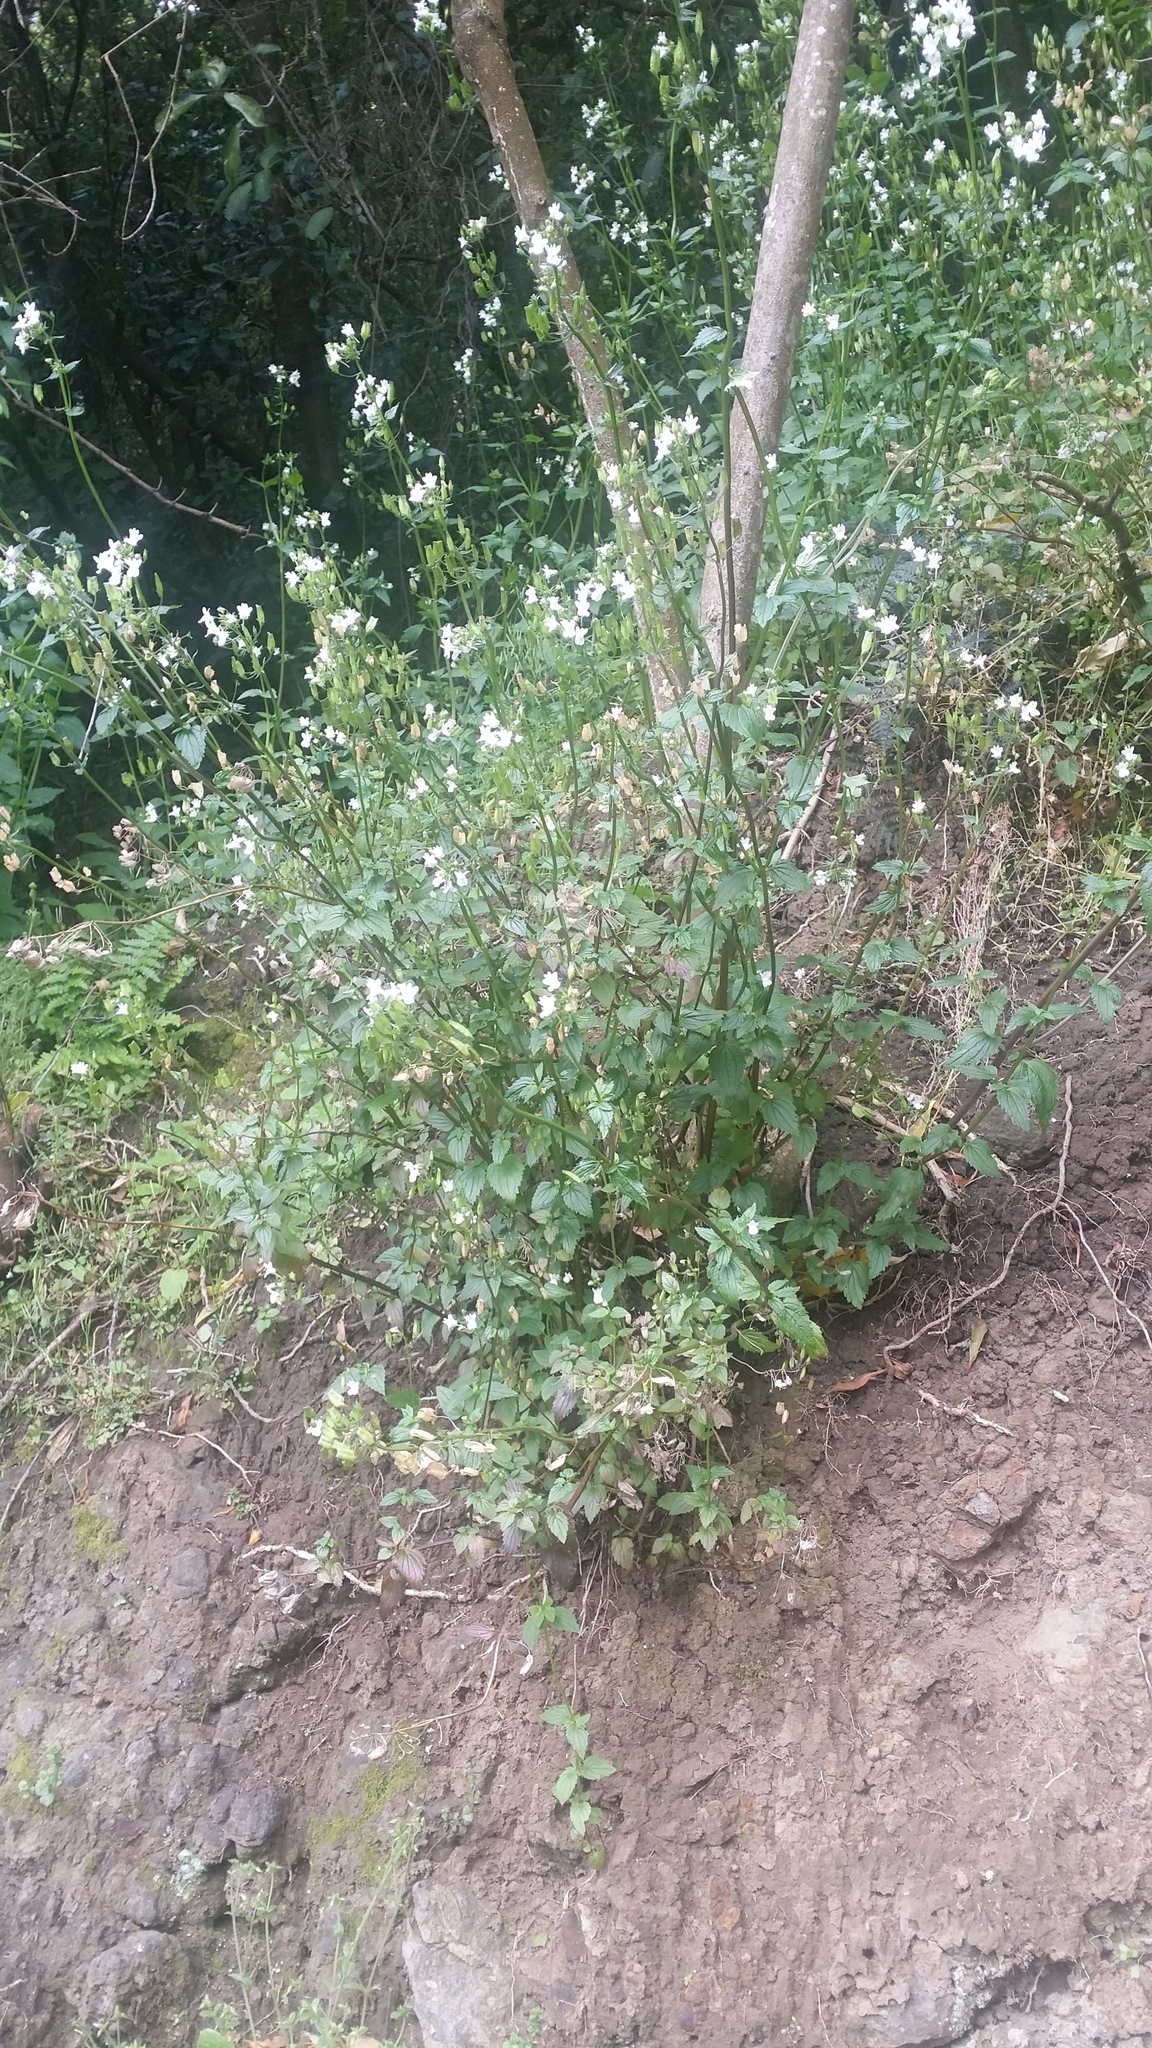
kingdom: Plantae
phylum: Tracheophyta
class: Magnoliopsida
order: Lamiales
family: Scrophulariaceae
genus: Nemesia
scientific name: Nemesia floribunda
